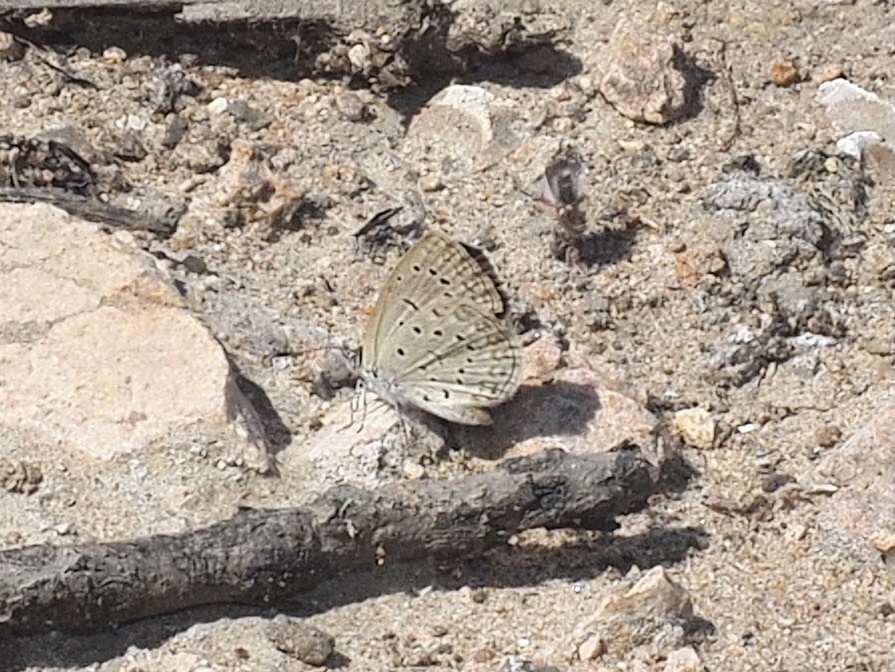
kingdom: Animalia
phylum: Arthropoda
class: Insecta
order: Lepidoptera
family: Lycaenidae
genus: Zizeeria
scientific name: Zizeeria knysna
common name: African grass blue
